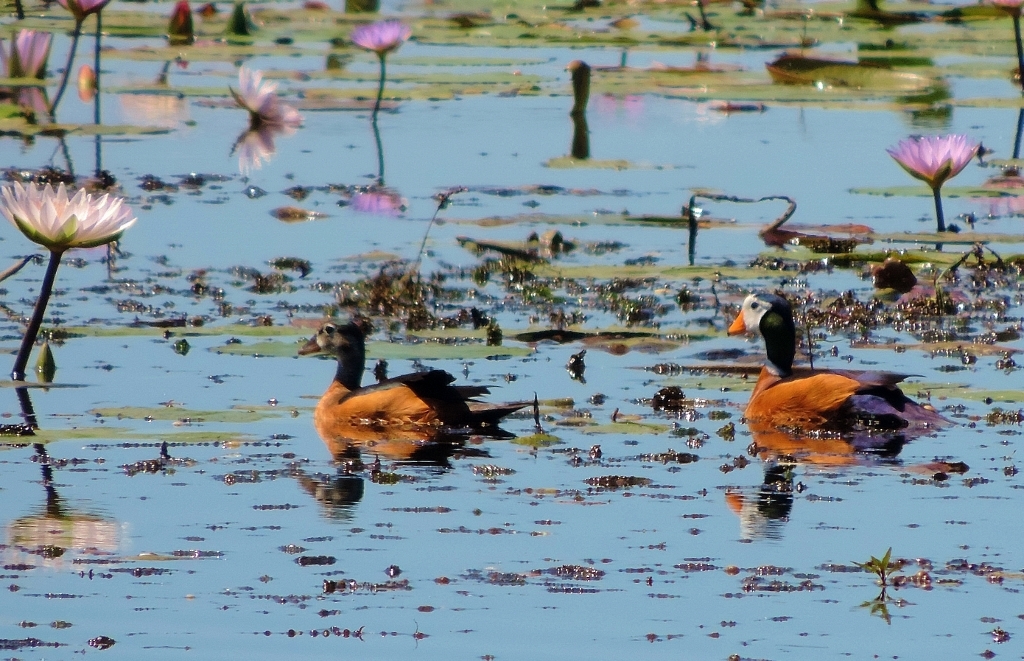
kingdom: Animalia
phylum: Chordata
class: Aves
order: Anseriformes
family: Anatidae
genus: Nettapus
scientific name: Nettapus auritus
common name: African pygmy-goose
